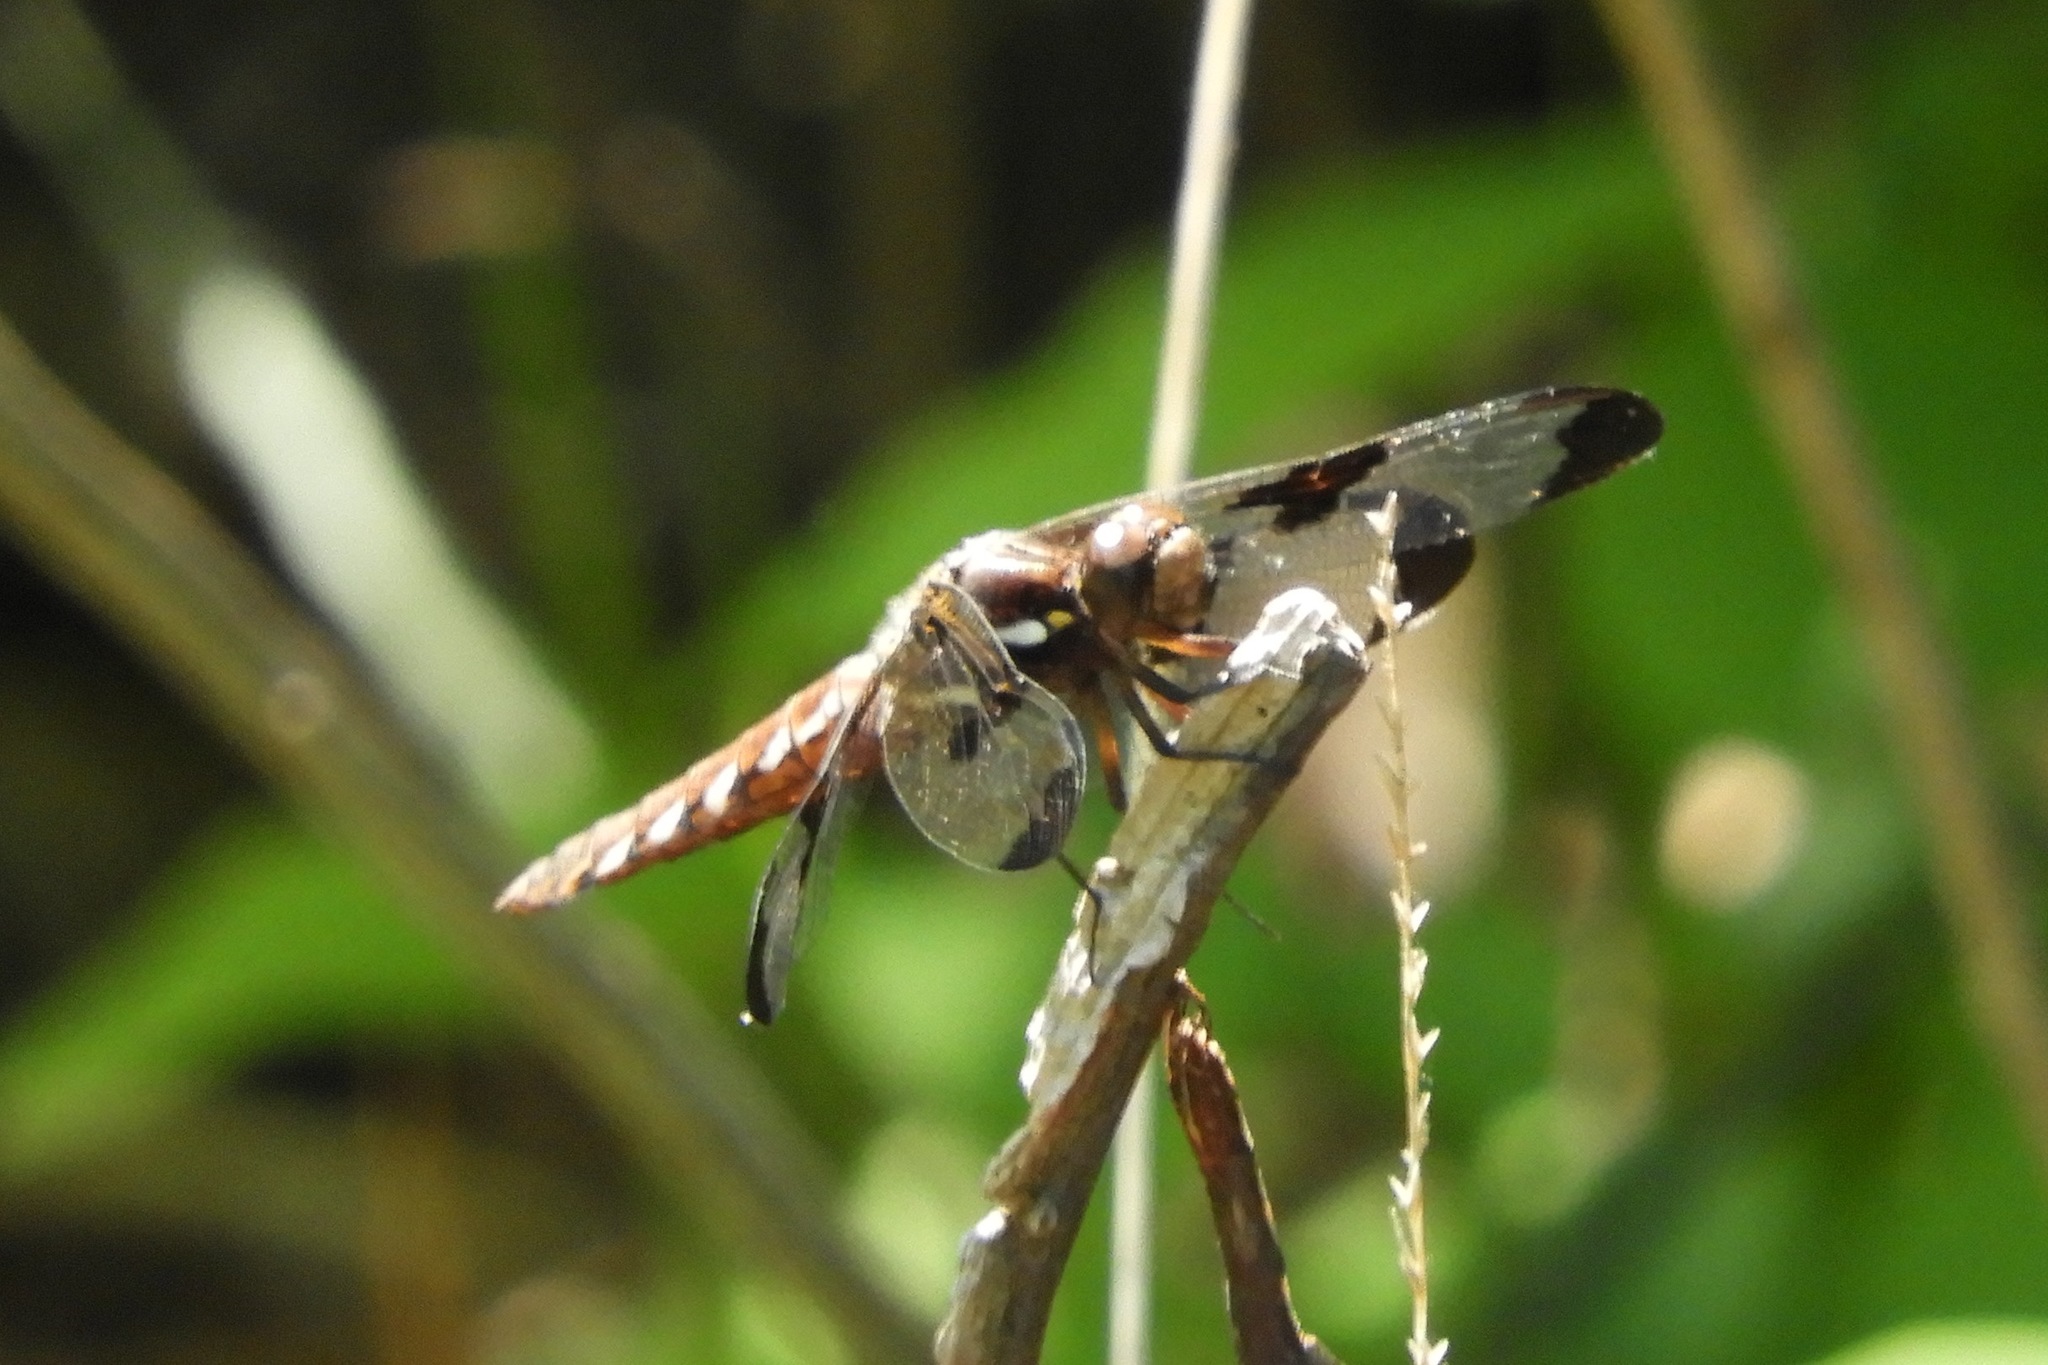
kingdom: Animalia
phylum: Arthropoda
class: Insecta
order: Odonata
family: Libellulidae
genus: Plathemis
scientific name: Plathemis lydia
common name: Common whitetail
